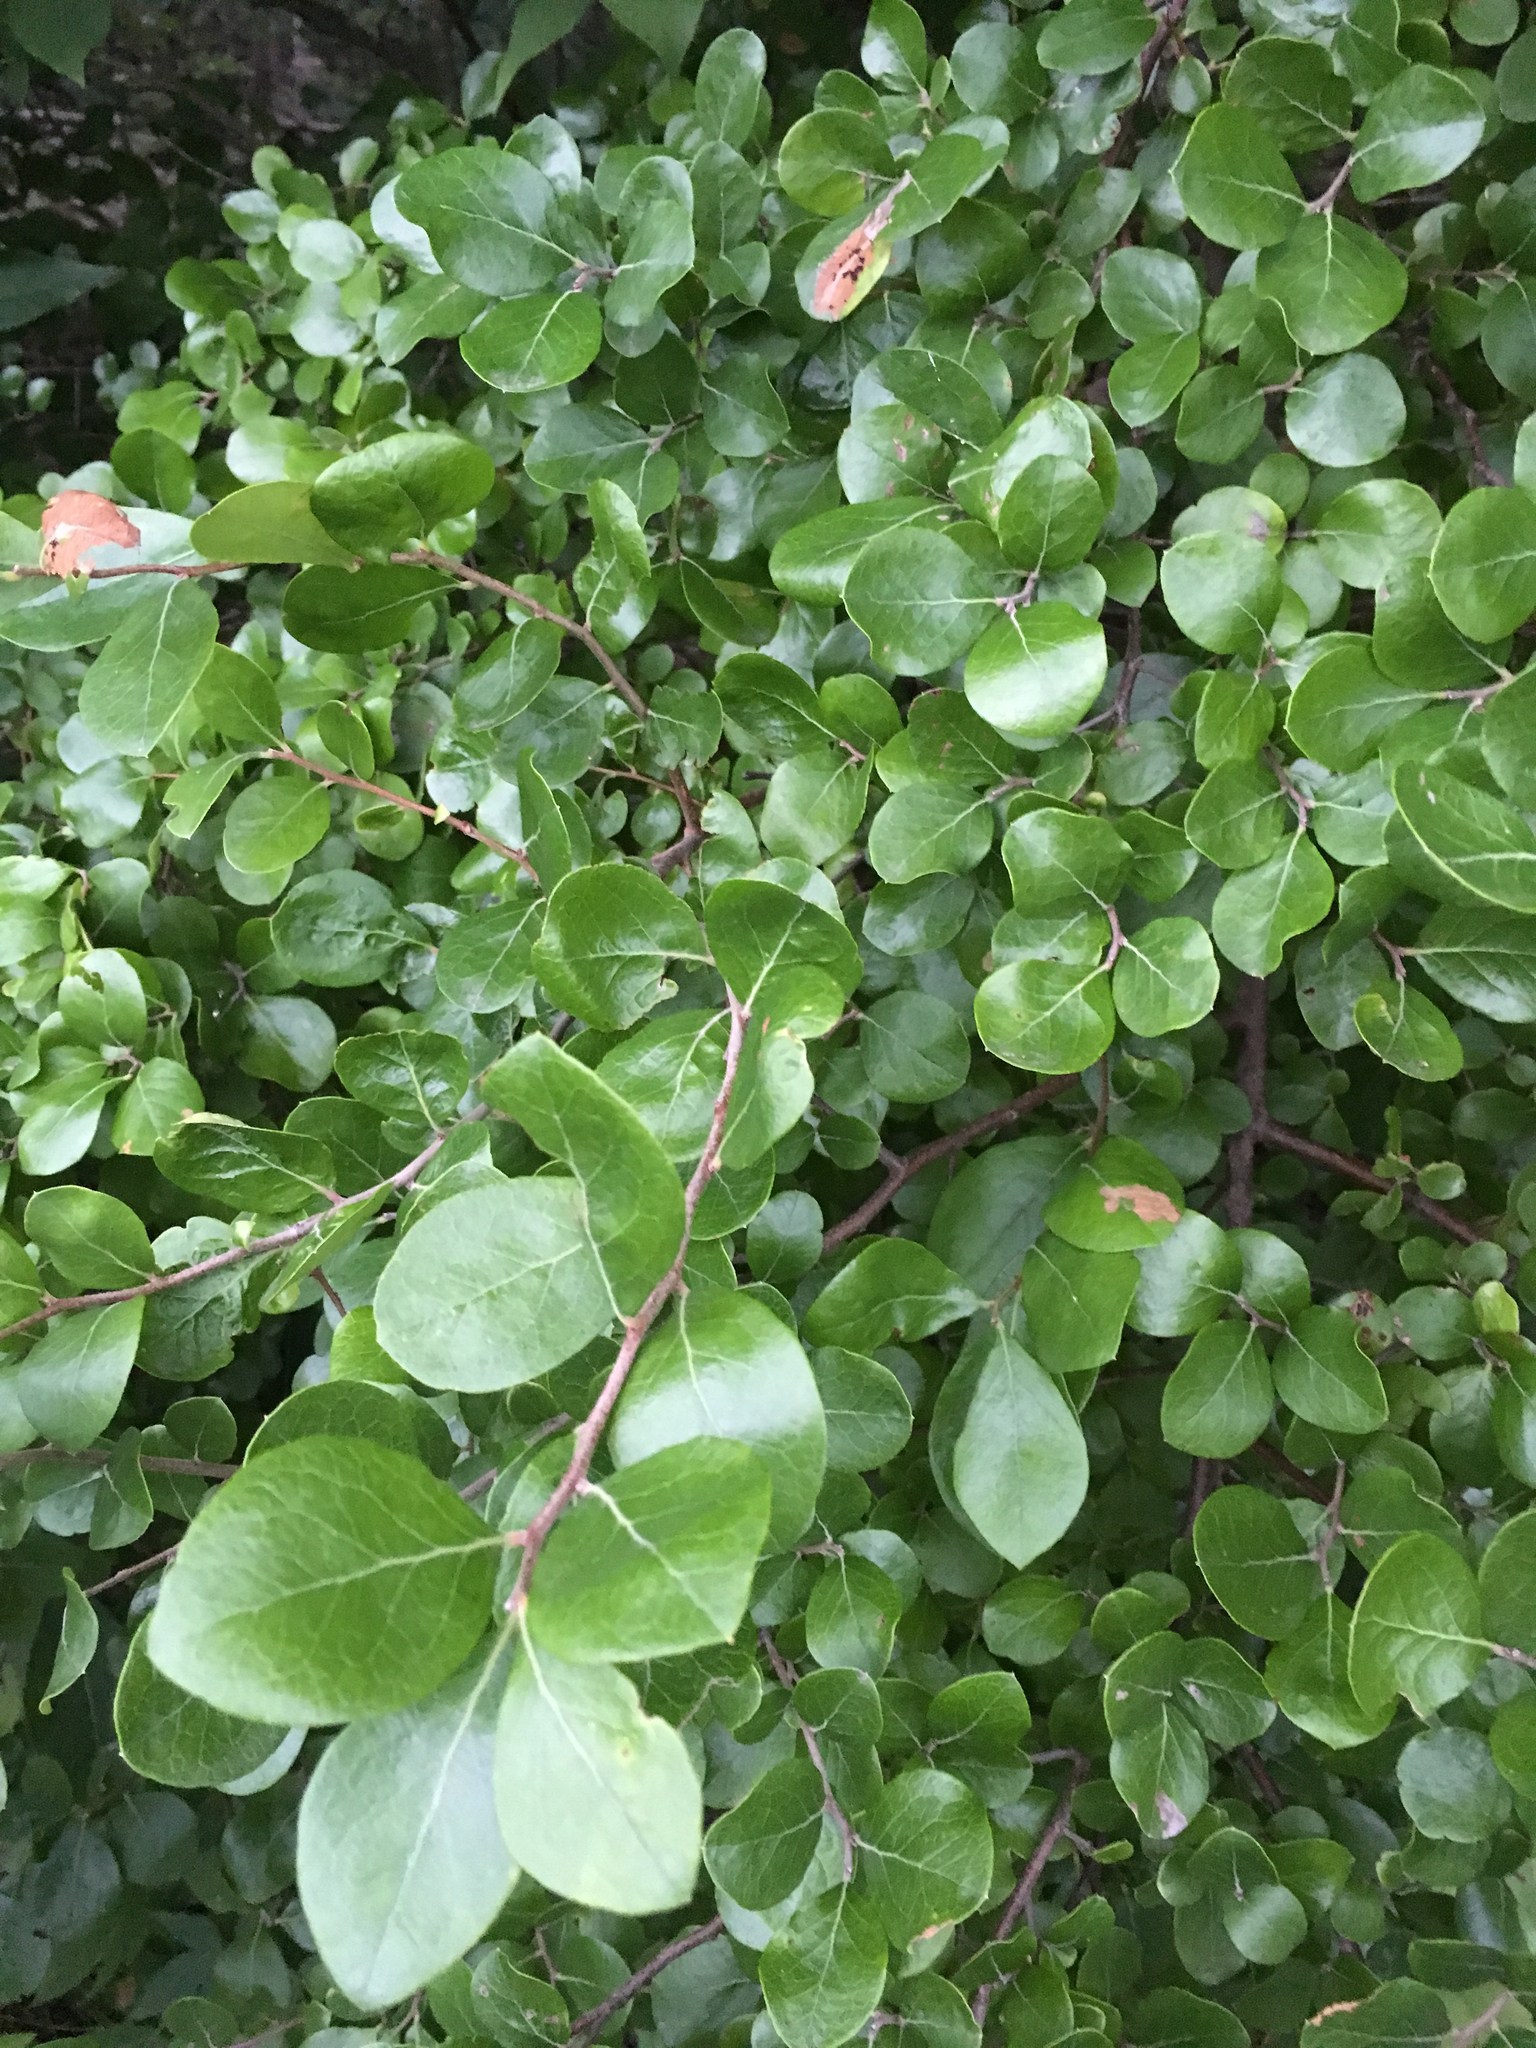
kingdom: Plantae
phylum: Tracheophyta
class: Magnoliopsida
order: Ericales
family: Ericaceae
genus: Vaccinium
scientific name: Vaccinium arboreum
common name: Farkleberry
